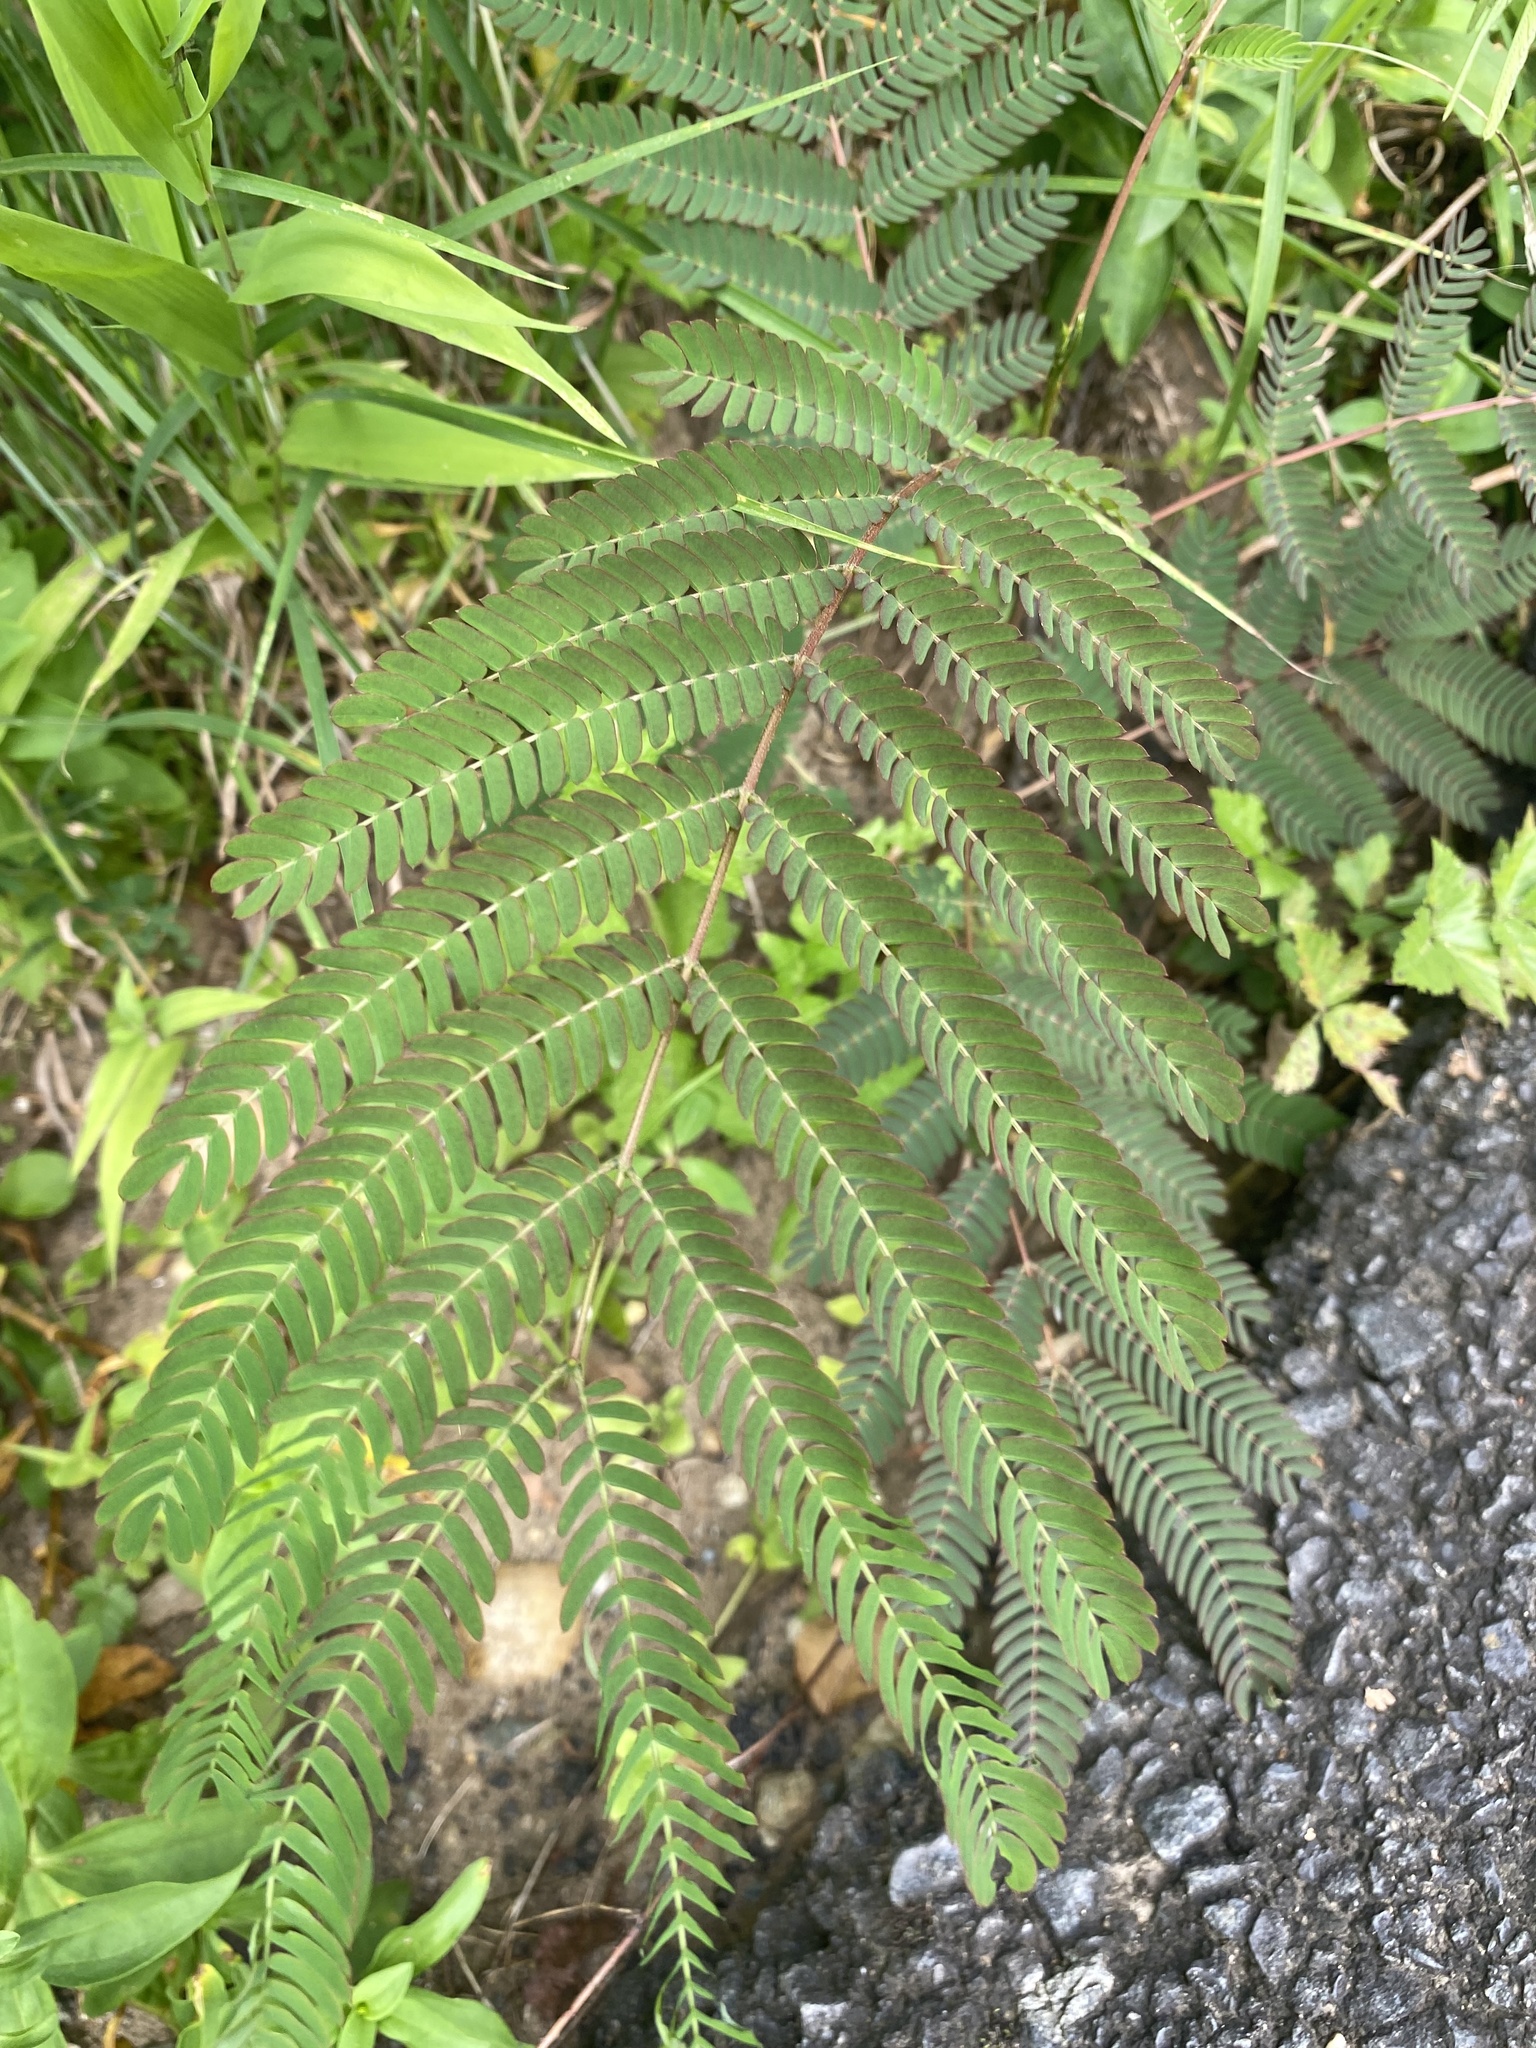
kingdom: Plantae
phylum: Tracheophyta
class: Magnoliopsida
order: Fabales
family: Fabaceae
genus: Albizia
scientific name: Albizia julibrissin
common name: Silktree
